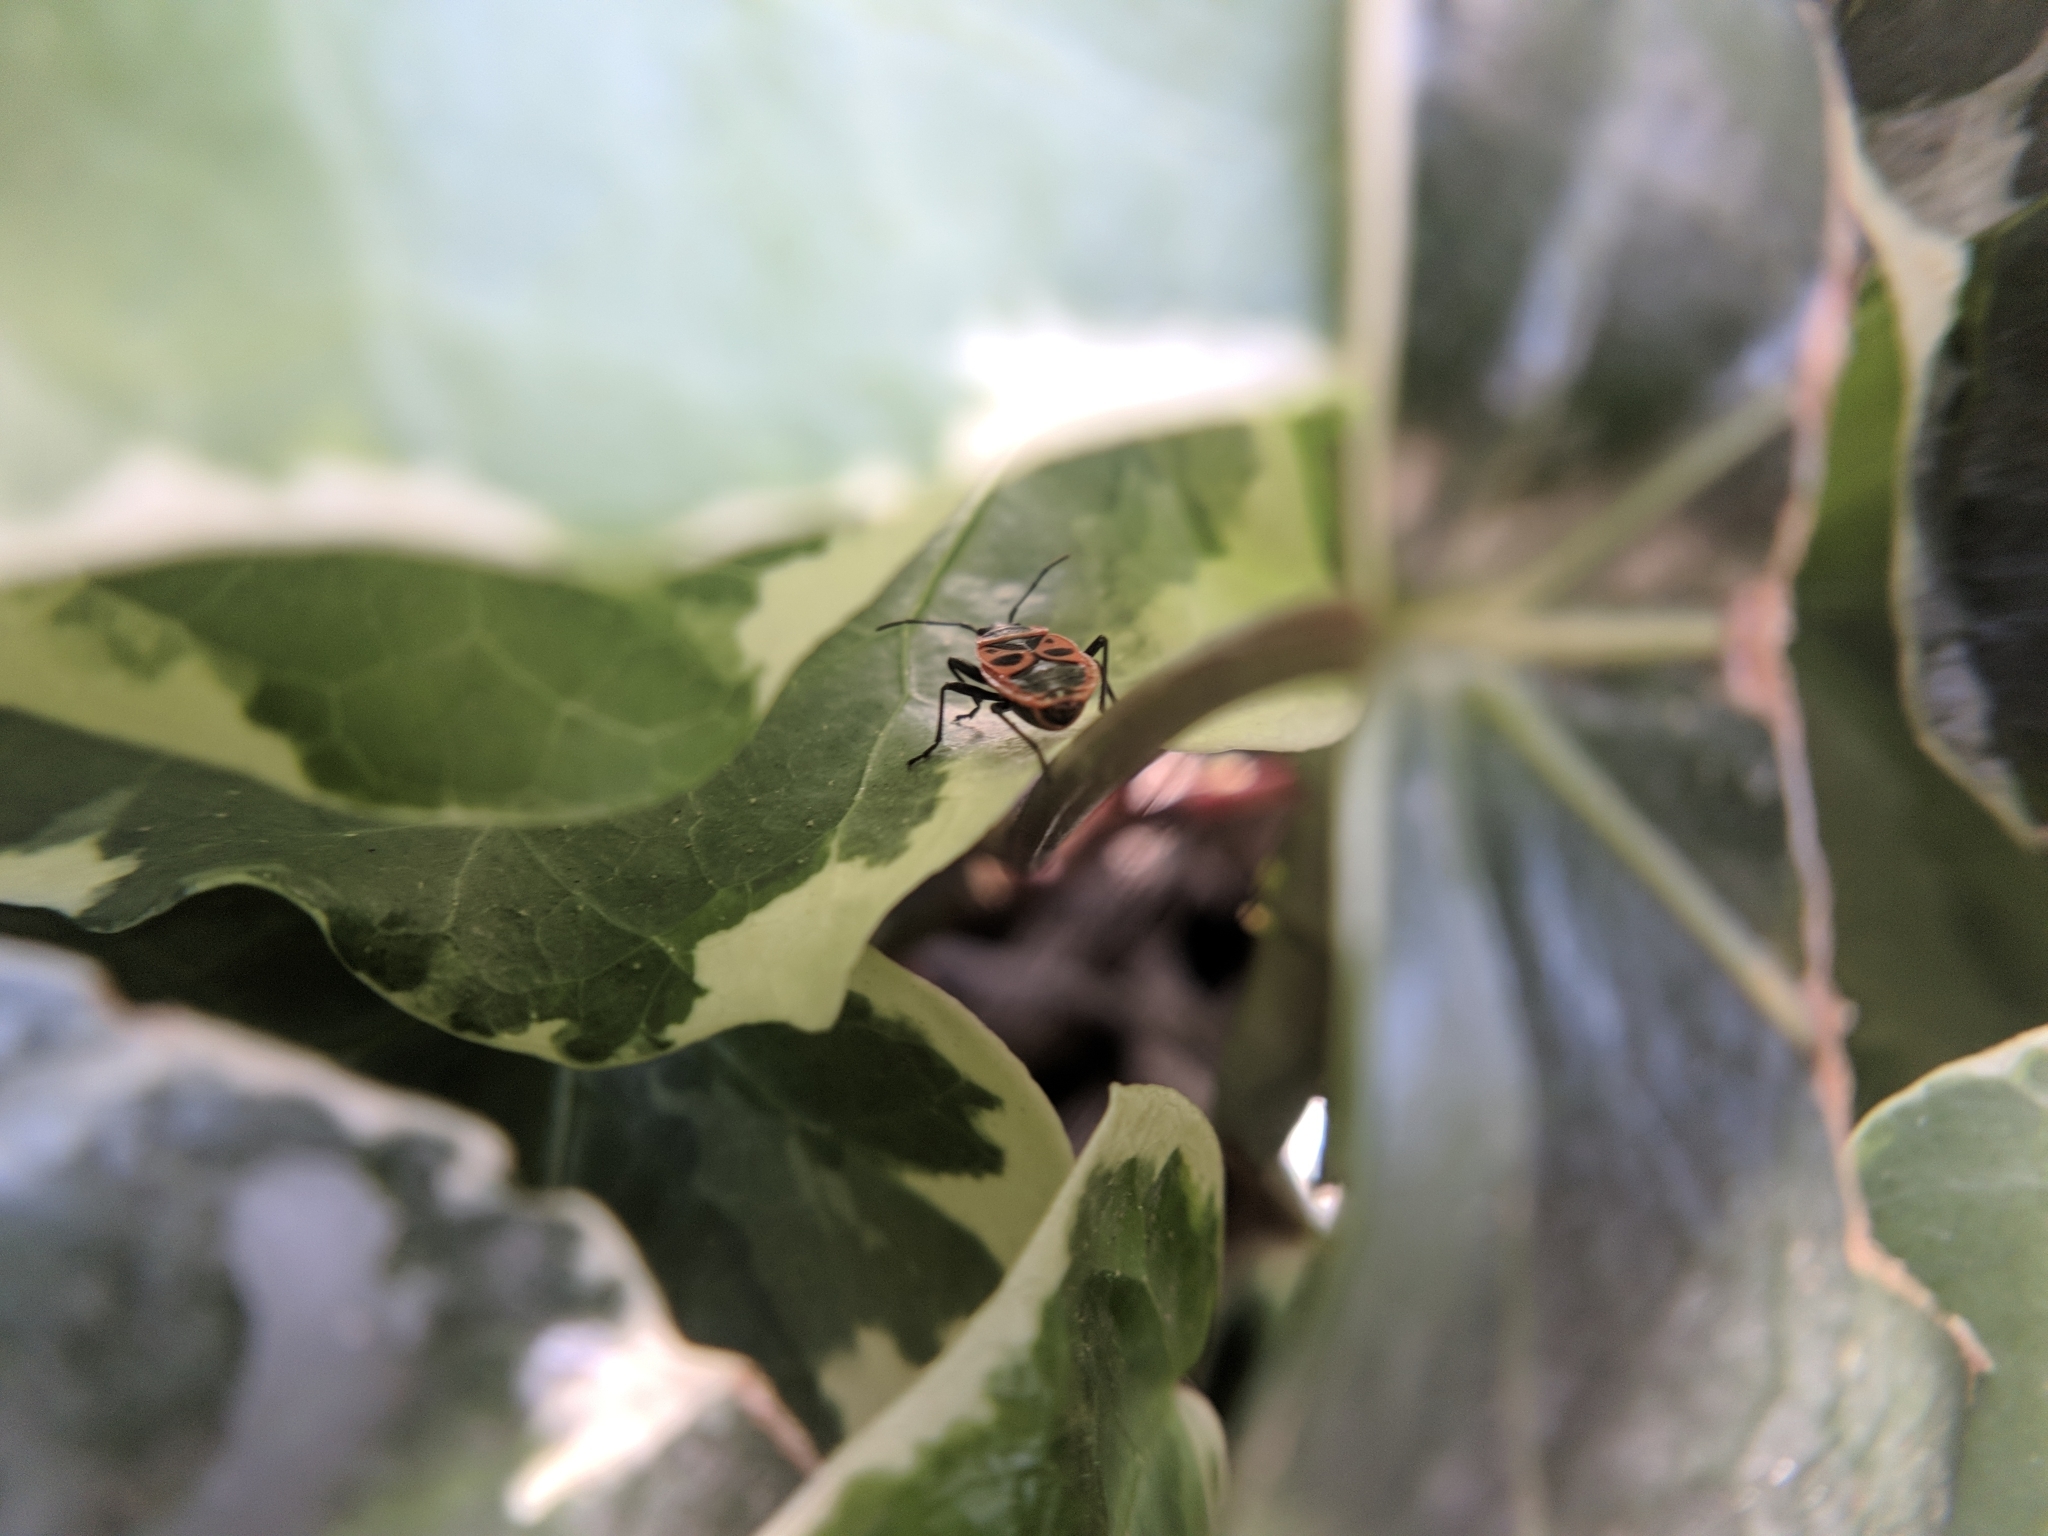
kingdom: Animalia
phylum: Arthropoda
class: Insecta
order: Hemiptera
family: Pyrrhocoridae
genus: Pyrrhocoris
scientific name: Pyrrhocoris apterus
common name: Firebug
